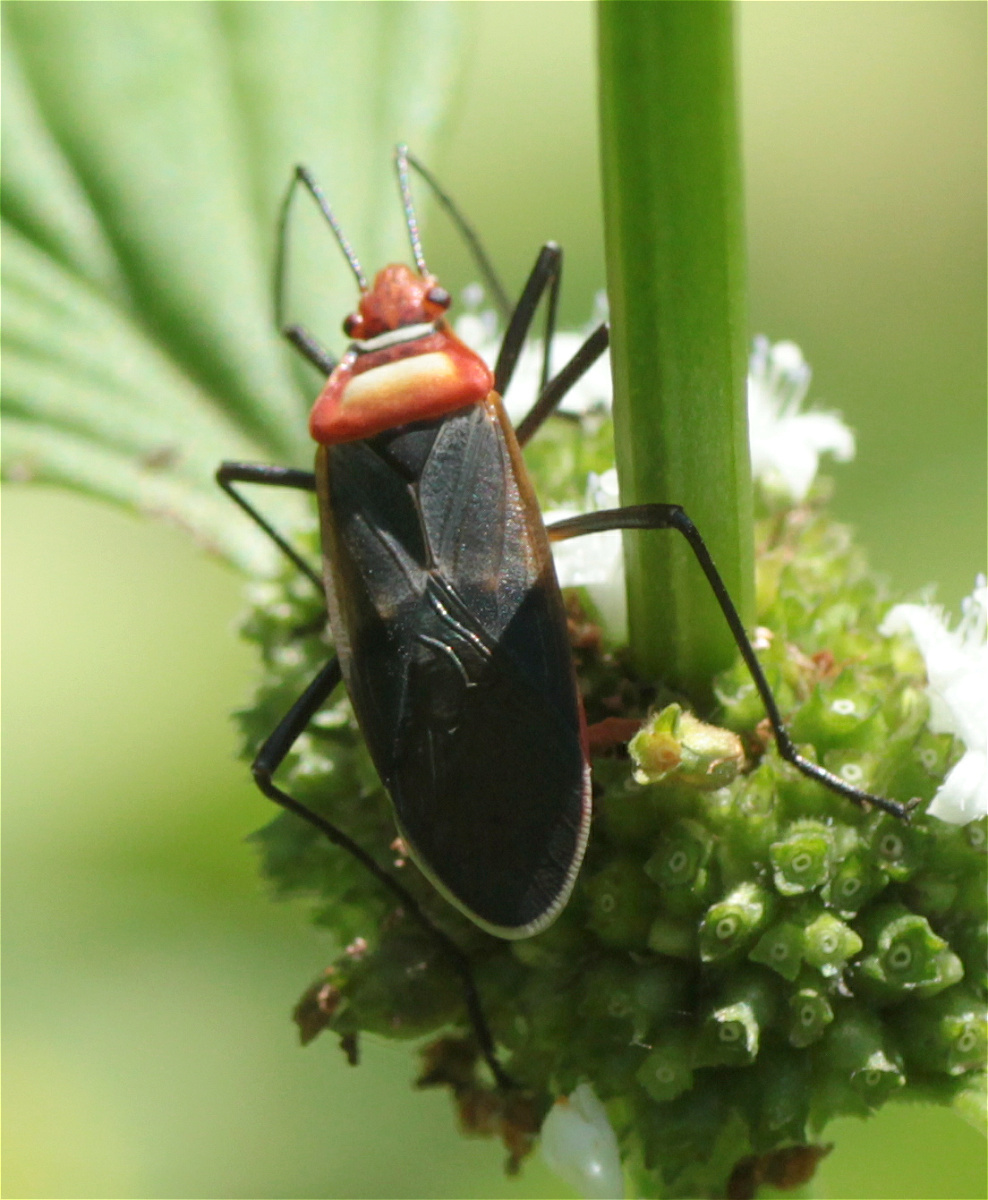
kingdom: Animalia
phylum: Arthropoda
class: Insecta
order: Hemiptera
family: Pyrrhocoridae
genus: Dysdercus
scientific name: Dysdercus collaris
